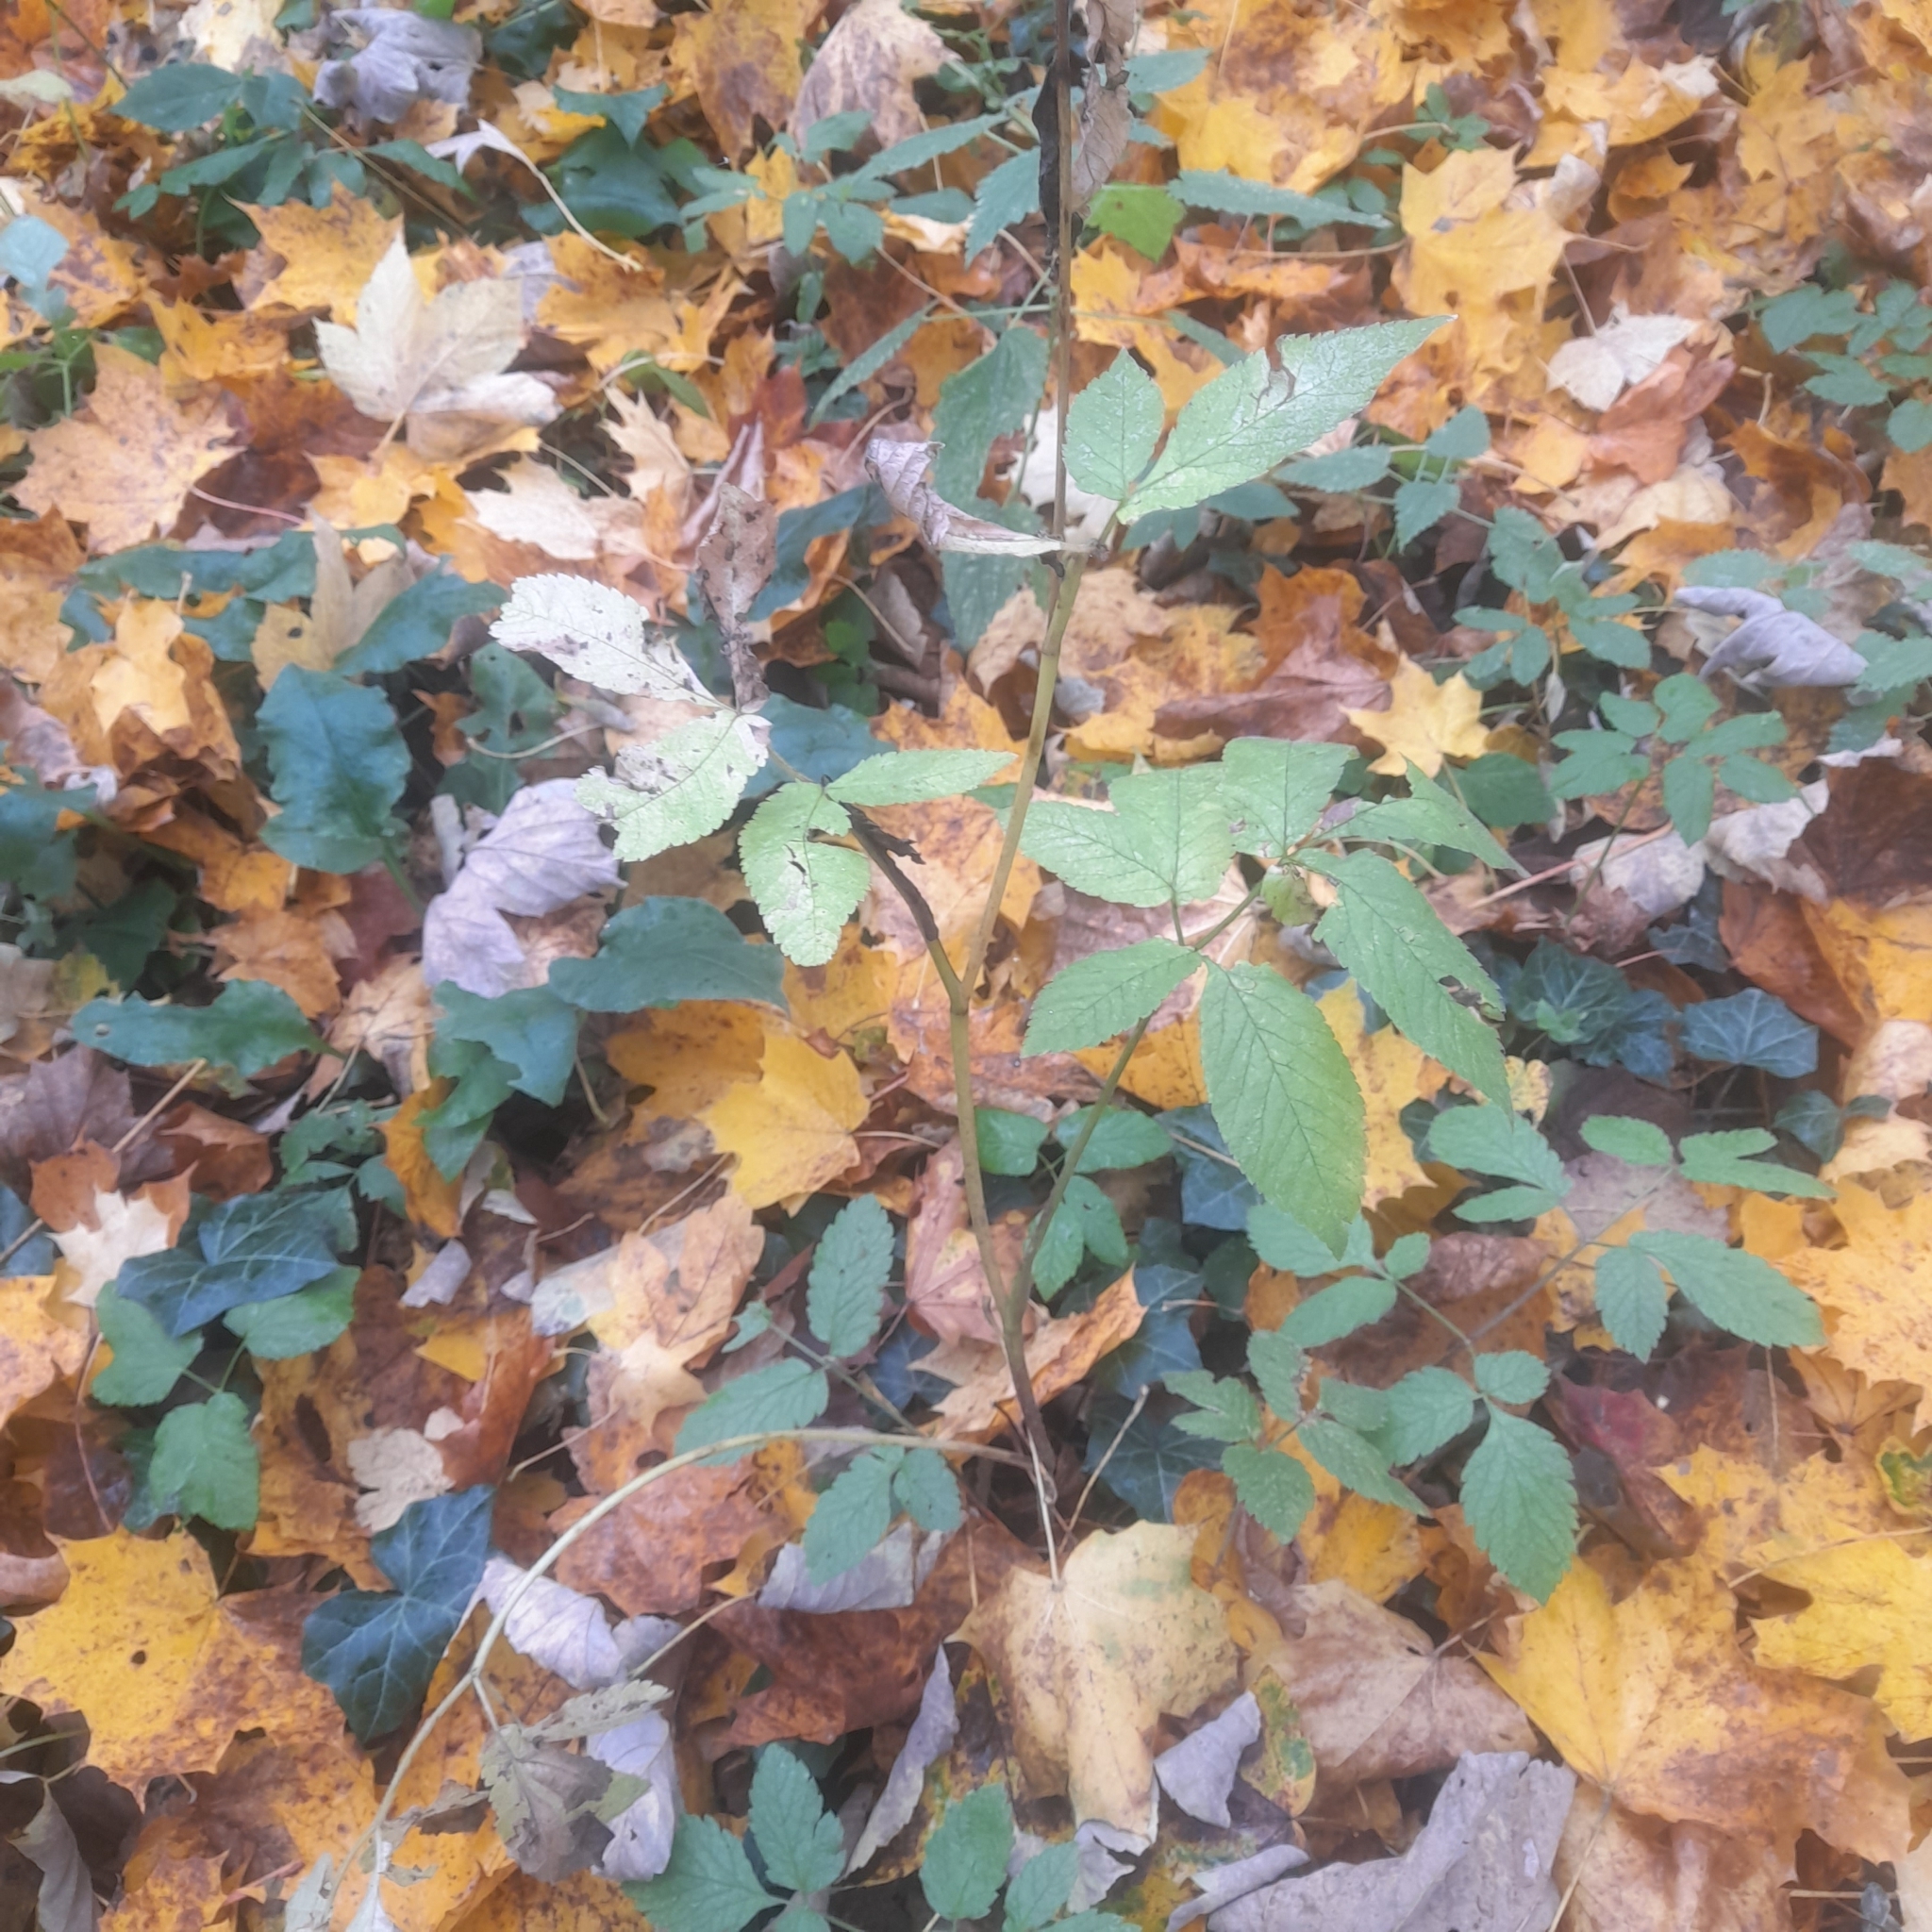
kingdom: Plantae
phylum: Tracheophyta
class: Magnoliopsida
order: Apiales
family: Apiaceae
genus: Chaerophyllum
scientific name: Chaerophyllum aromaticum
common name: Broadleaf chervil
